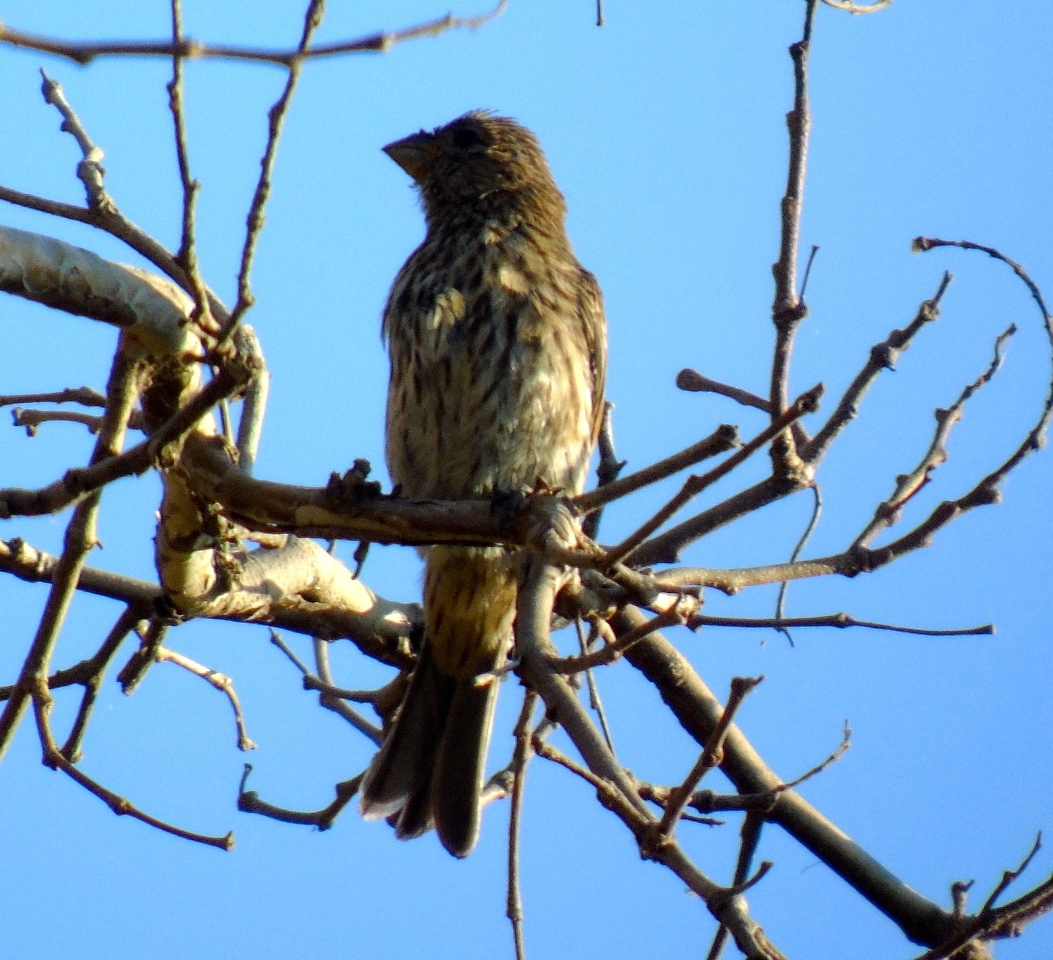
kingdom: Animalia
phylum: Chordata
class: Aves
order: Passeriformes
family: Fringillidae
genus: Haemorhous
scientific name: Haemorhous mexicanus
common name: House finch
